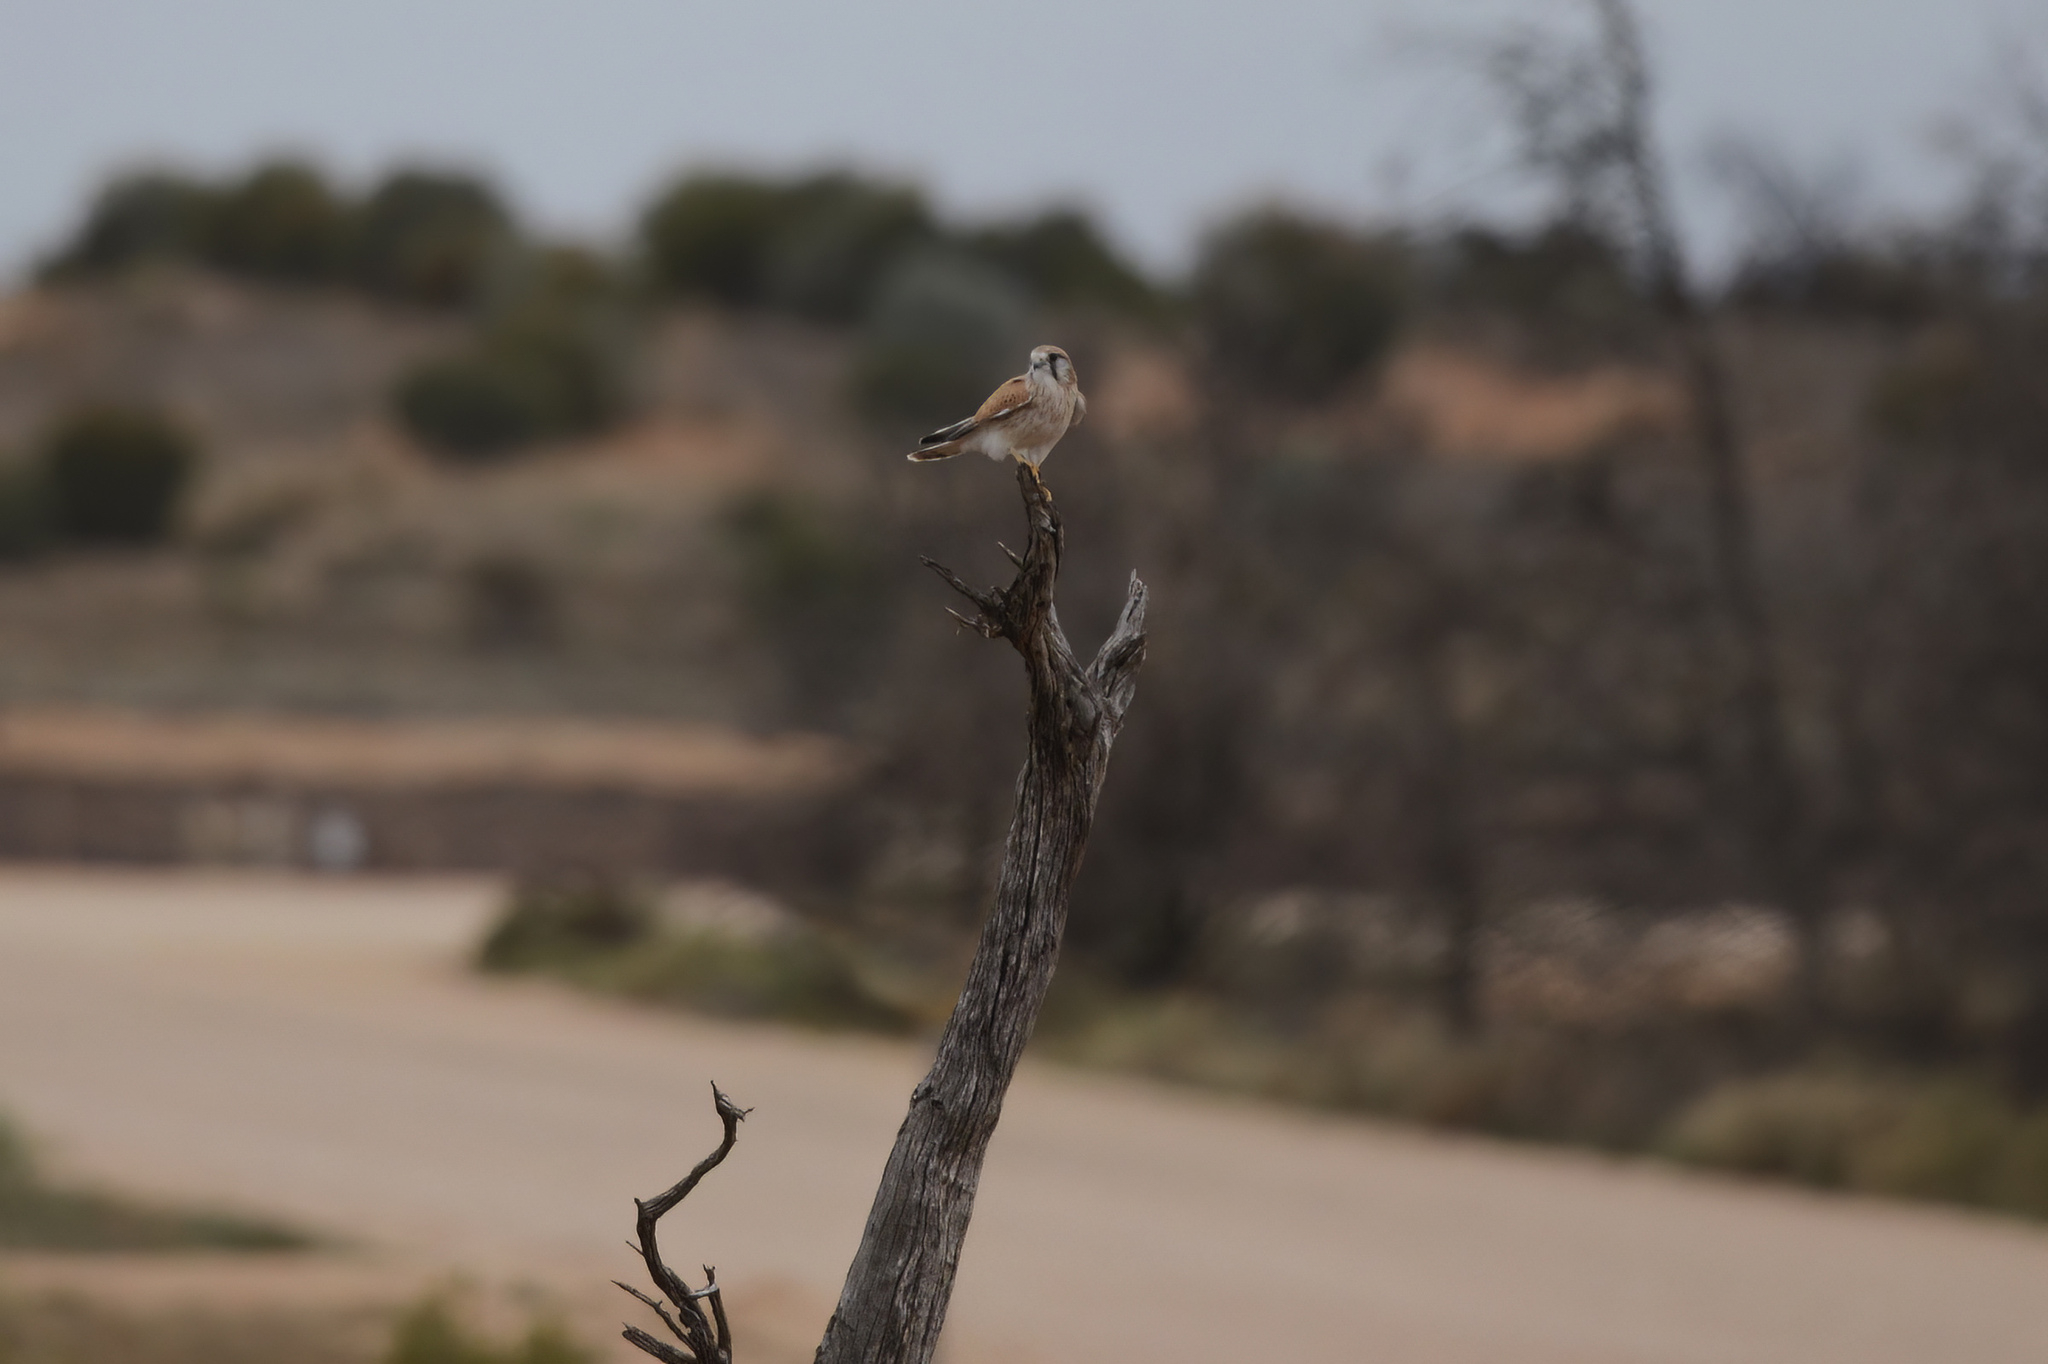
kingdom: Animalia
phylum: Chordata
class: Aves
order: Falconiformes
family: Falconidae
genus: Falco
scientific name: Falco cenchroides
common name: Nankeen kestrel
